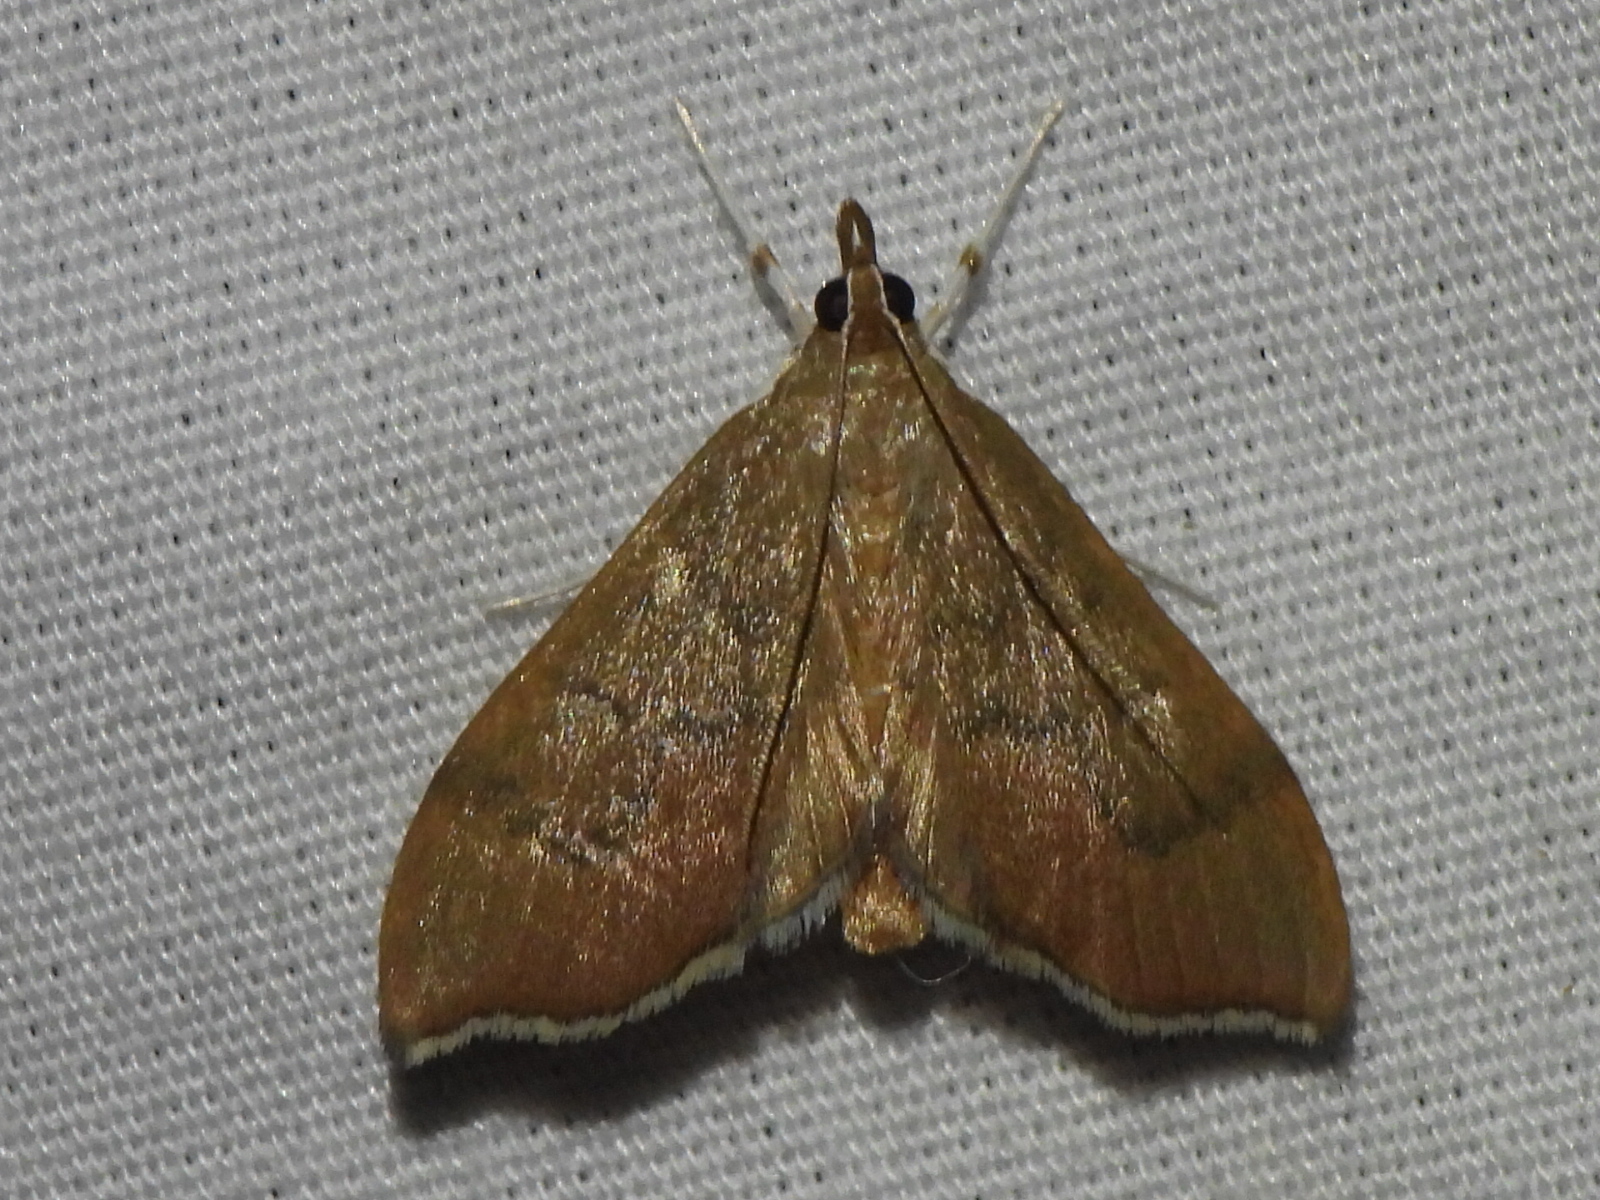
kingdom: Animalia
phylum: Arthropoda
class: Insecta
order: Lepidoptera
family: Crambidae
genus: Sericoplaga
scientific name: Sericoplaga externalis
